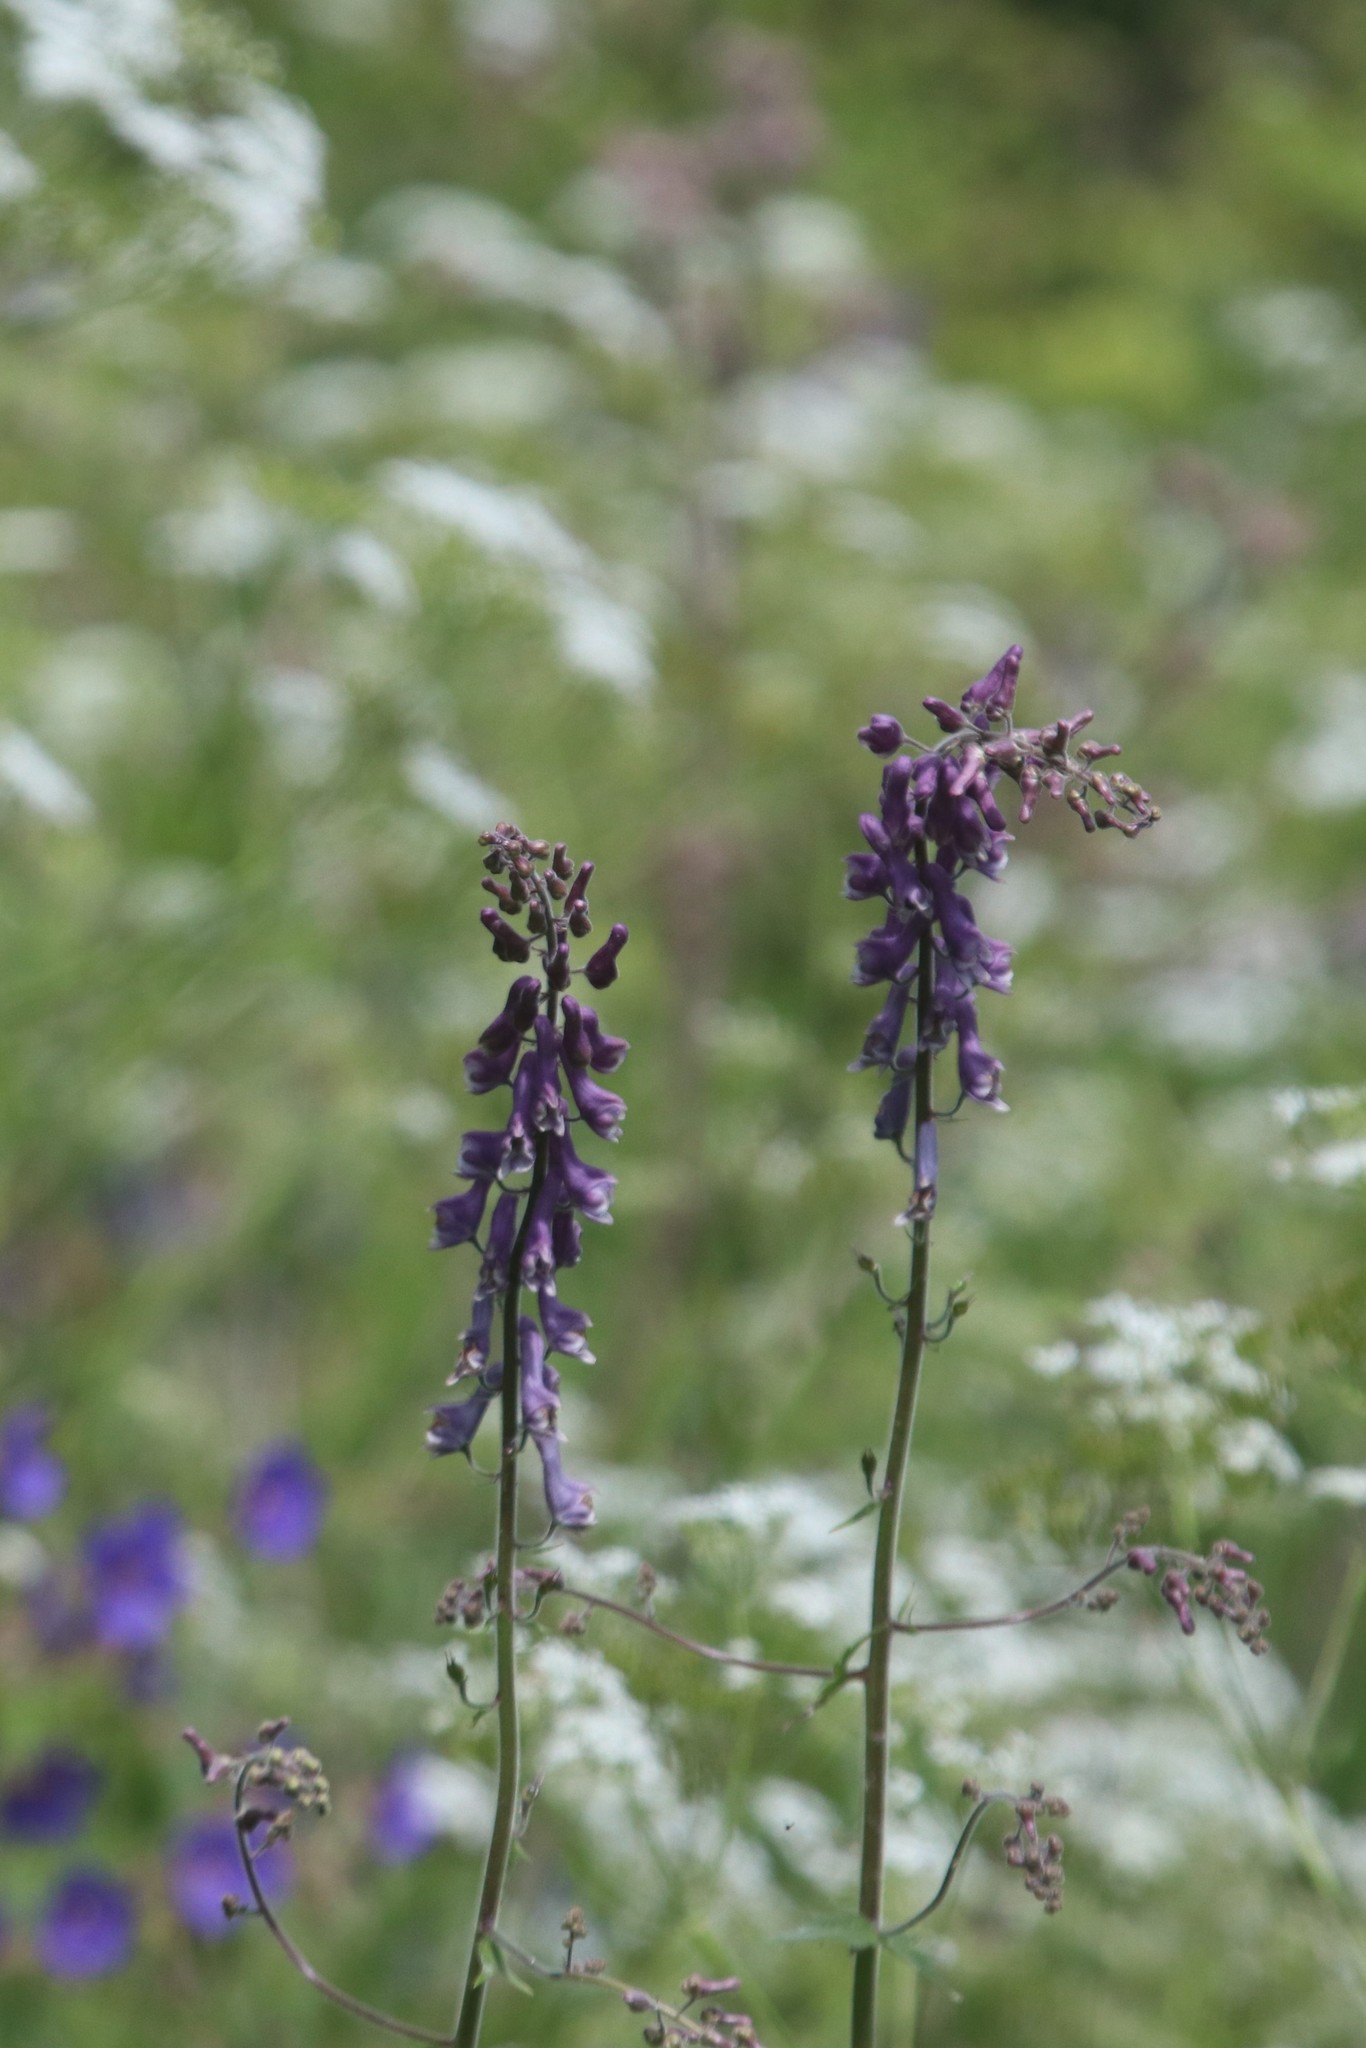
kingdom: Plantae
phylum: Tracheophyta
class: Magnoliopsida
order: Ranunculales
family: Ranunculaceae
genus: Aconitum
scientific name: Aconitum septentrionale
